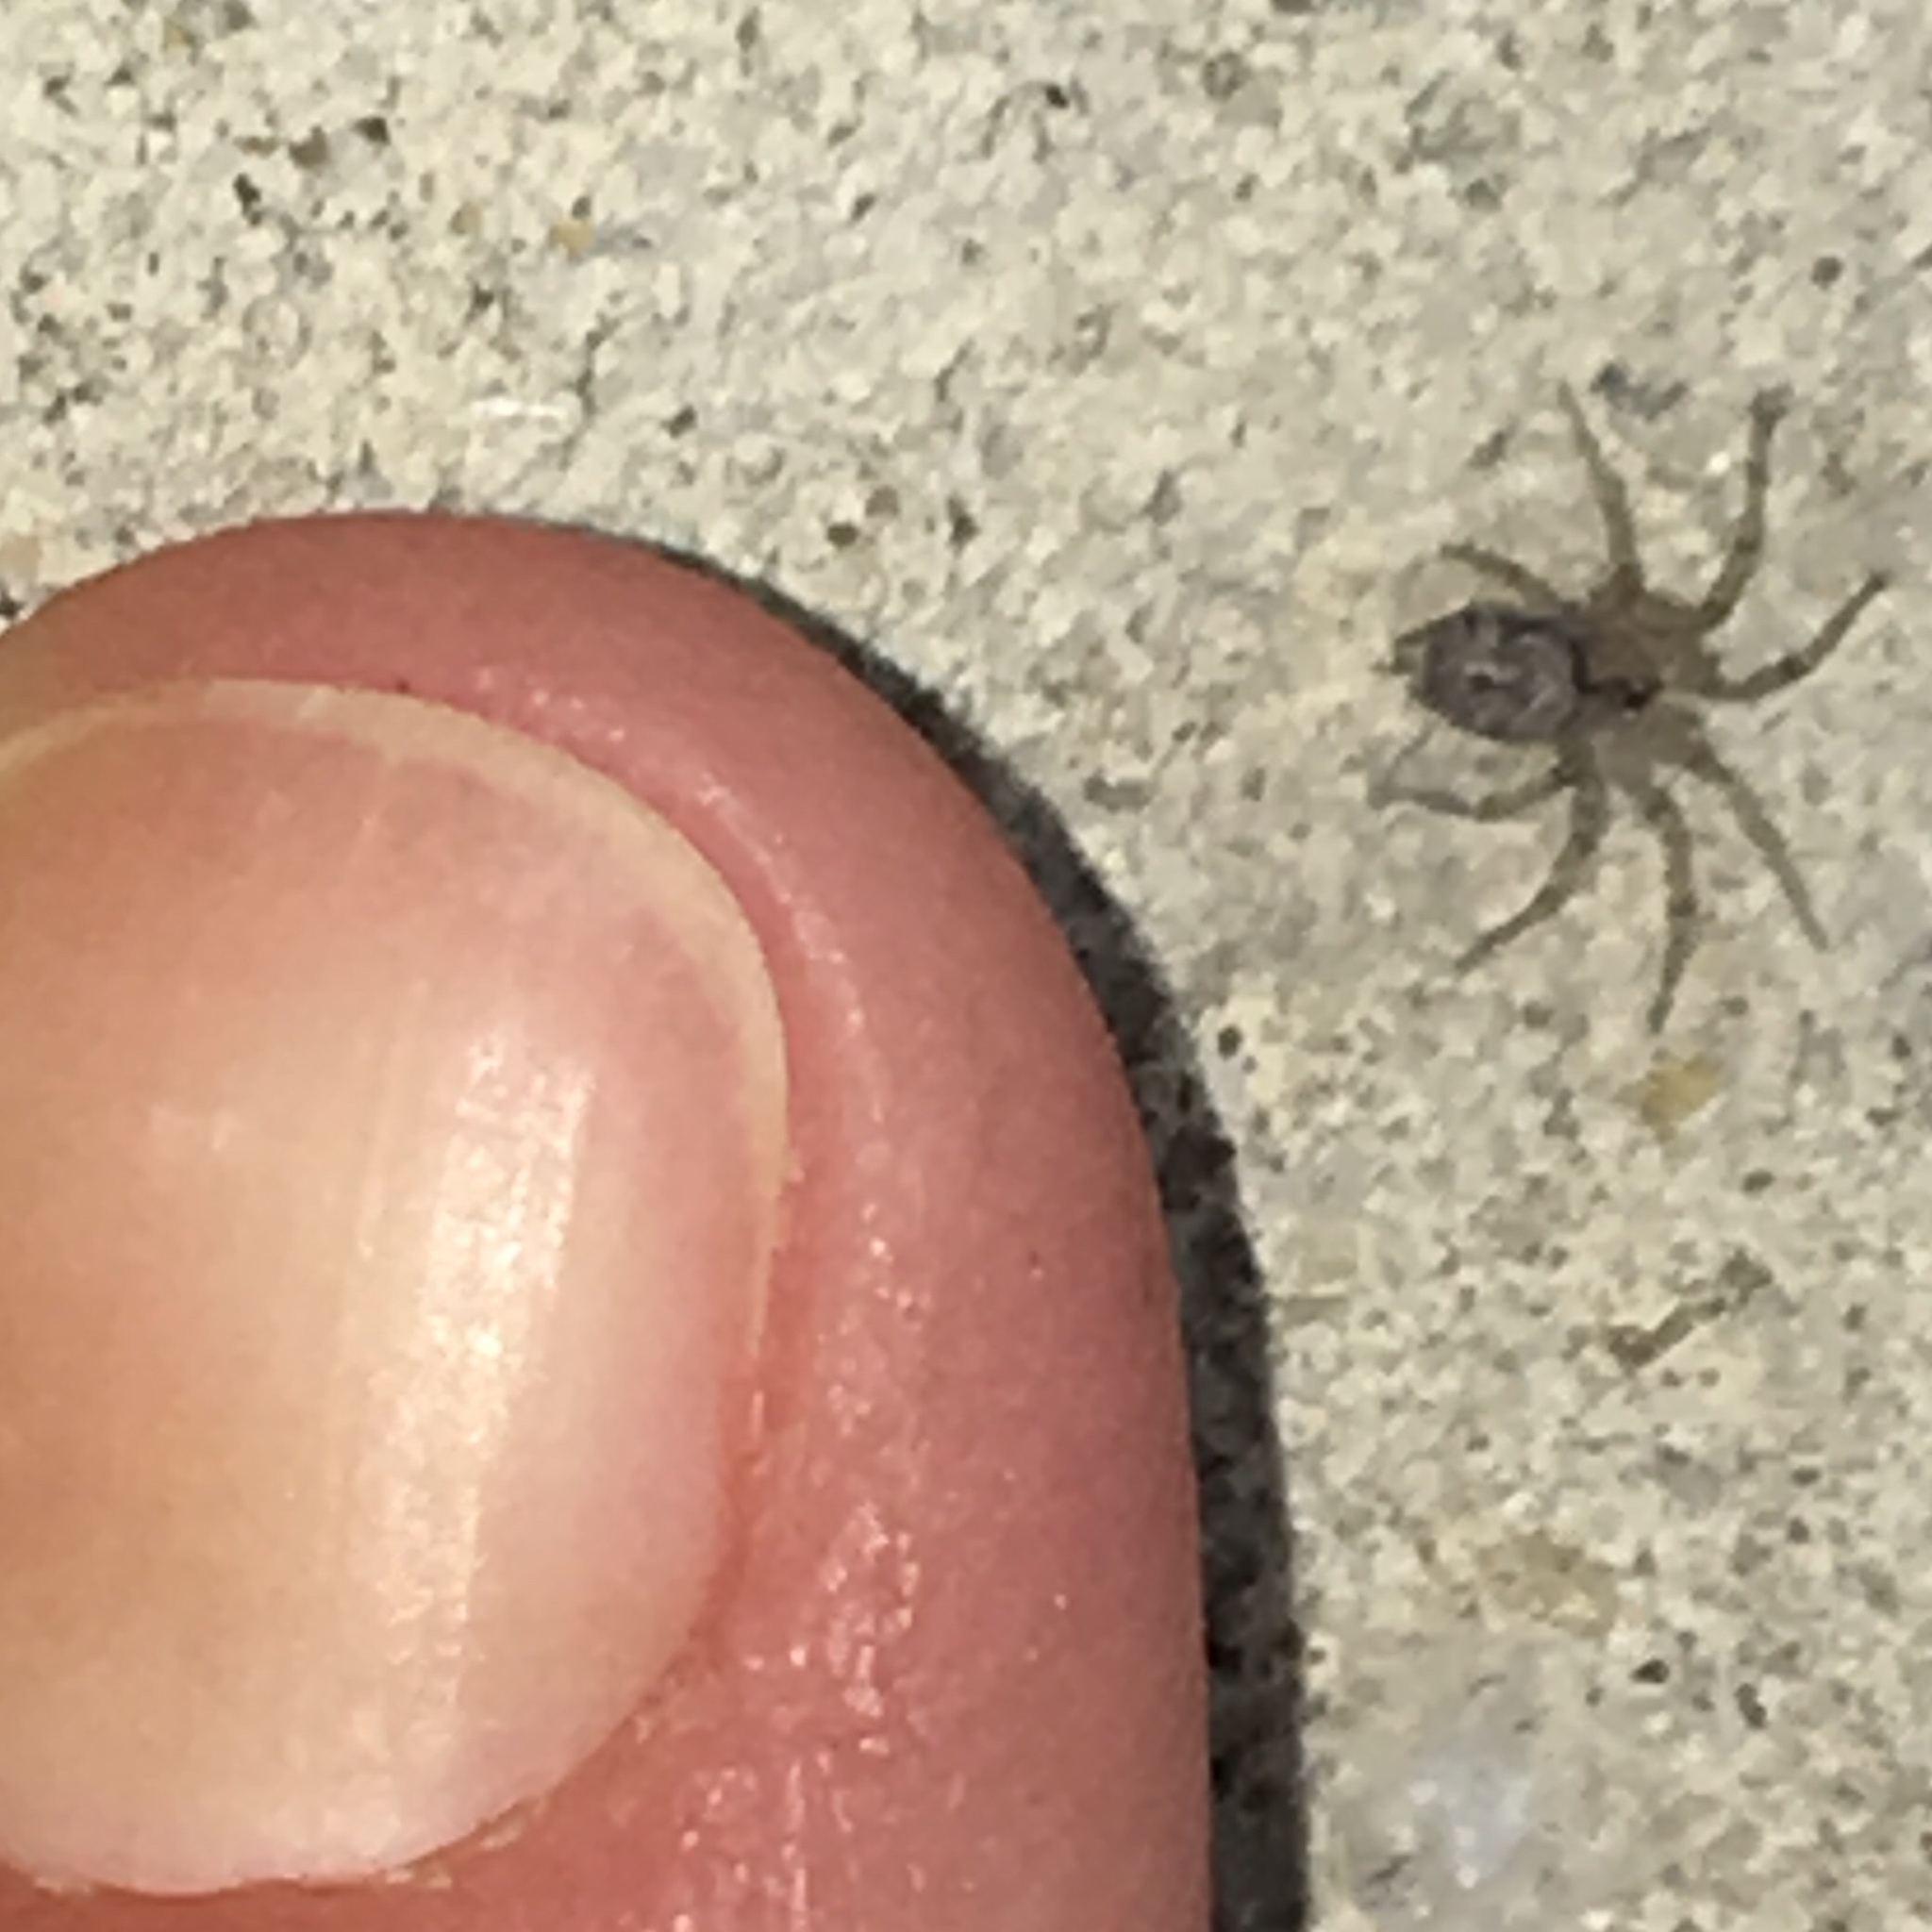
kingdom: Animalia
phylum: Arthropoda
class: Arachnida
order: Araneae
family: Oecobiidae
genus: Oecobius
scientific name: Oecobius navus
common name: Flatmesh weaver
